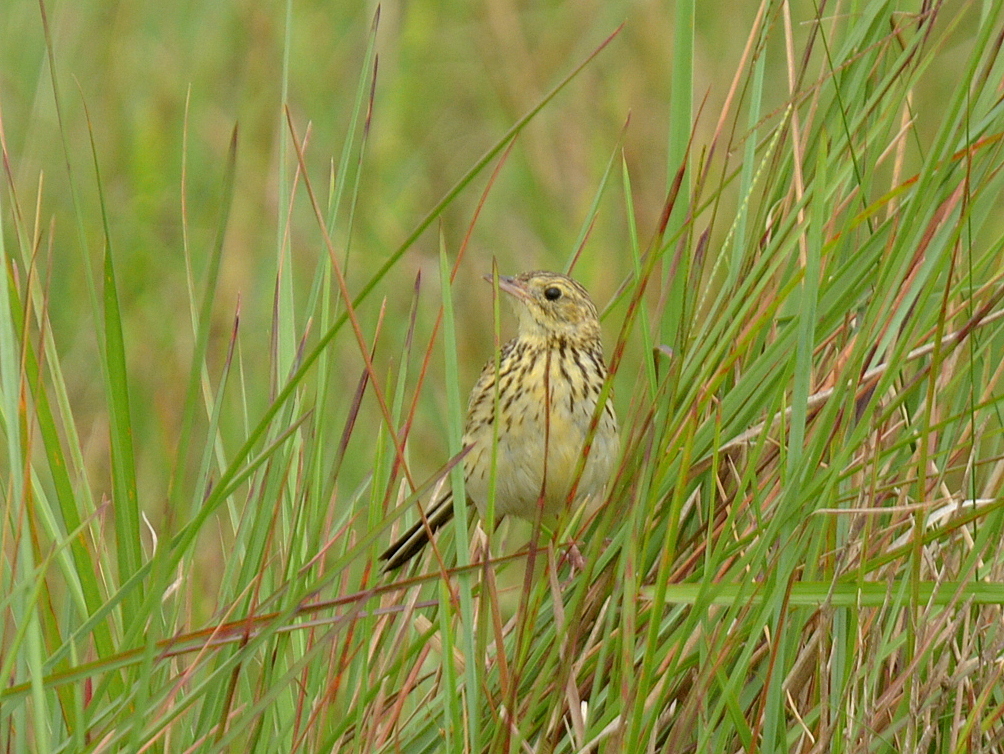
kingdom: Animalia
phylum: Chordata
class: Aves
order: Passeriformes
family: Motacillidae
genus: Anthus
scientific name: Anthus nattereri
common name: Ochre-breasted pipit
